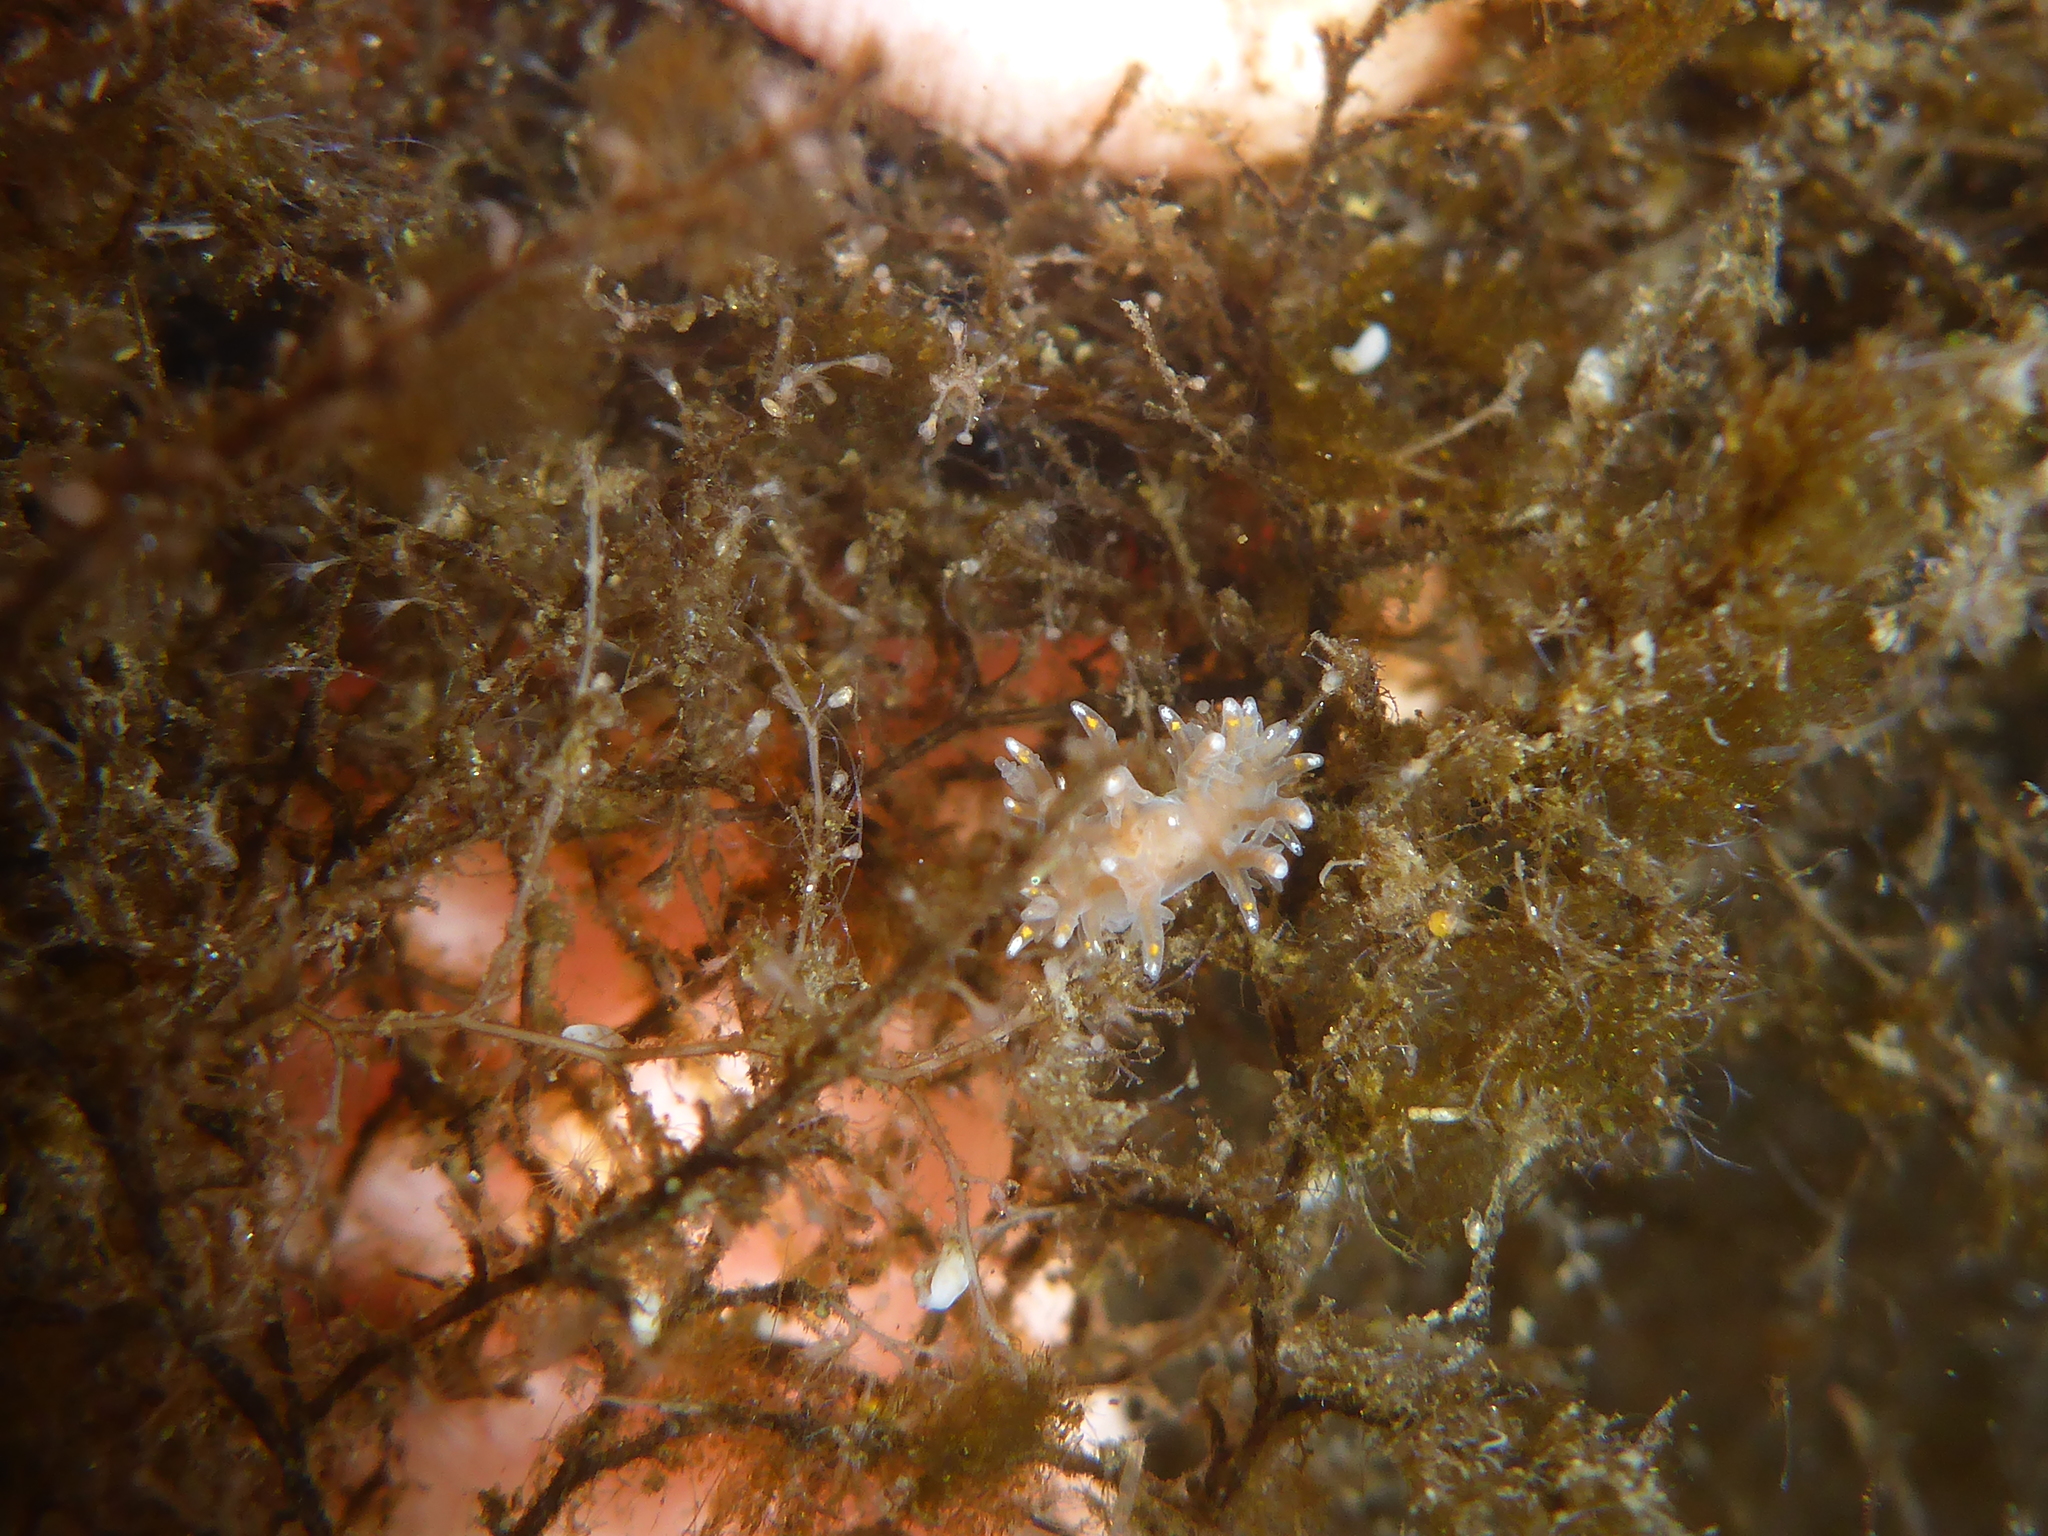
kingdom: Animalia
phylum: Mollusca
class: Gastropoda
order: Nudibranchia
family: Dendronotidae
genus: Dendronotus
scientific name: Dendronotus iris
